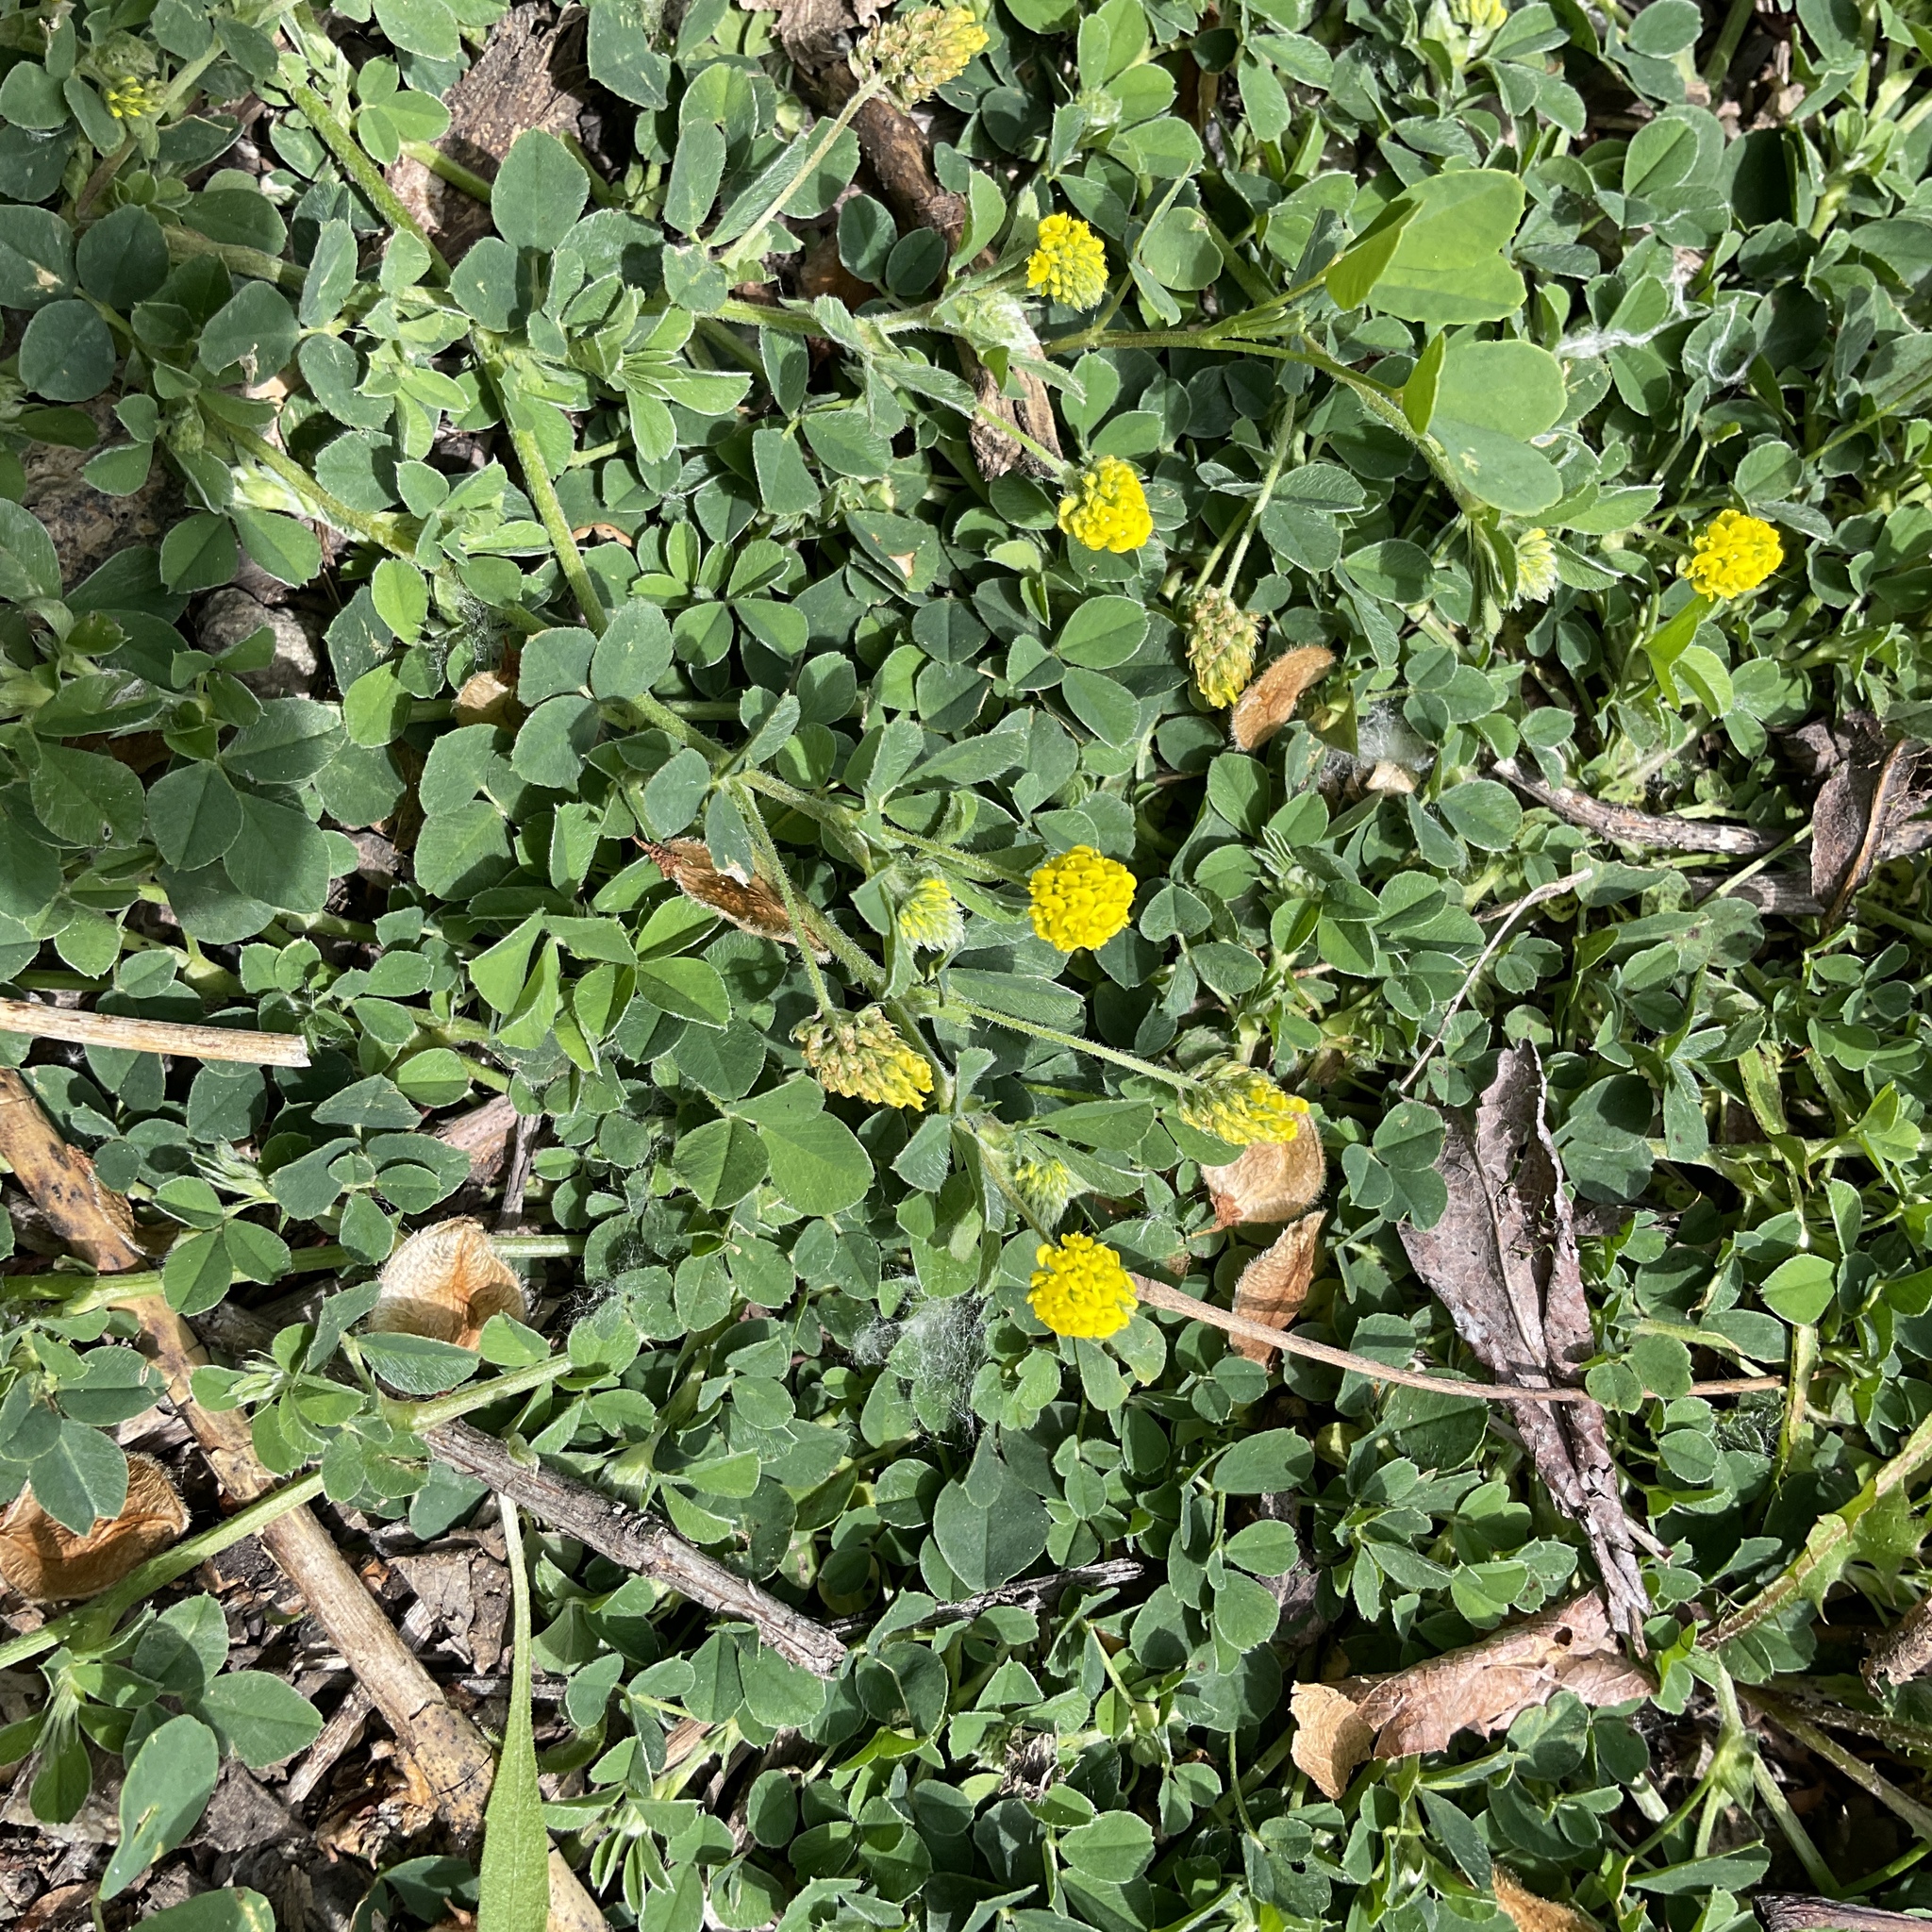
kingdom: Plantae
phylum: Tracheophyta
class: Magnoliopsida
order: Fabales
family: Fabaceae
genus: Medicago
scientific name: Medicago lupulina
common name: Black medick
